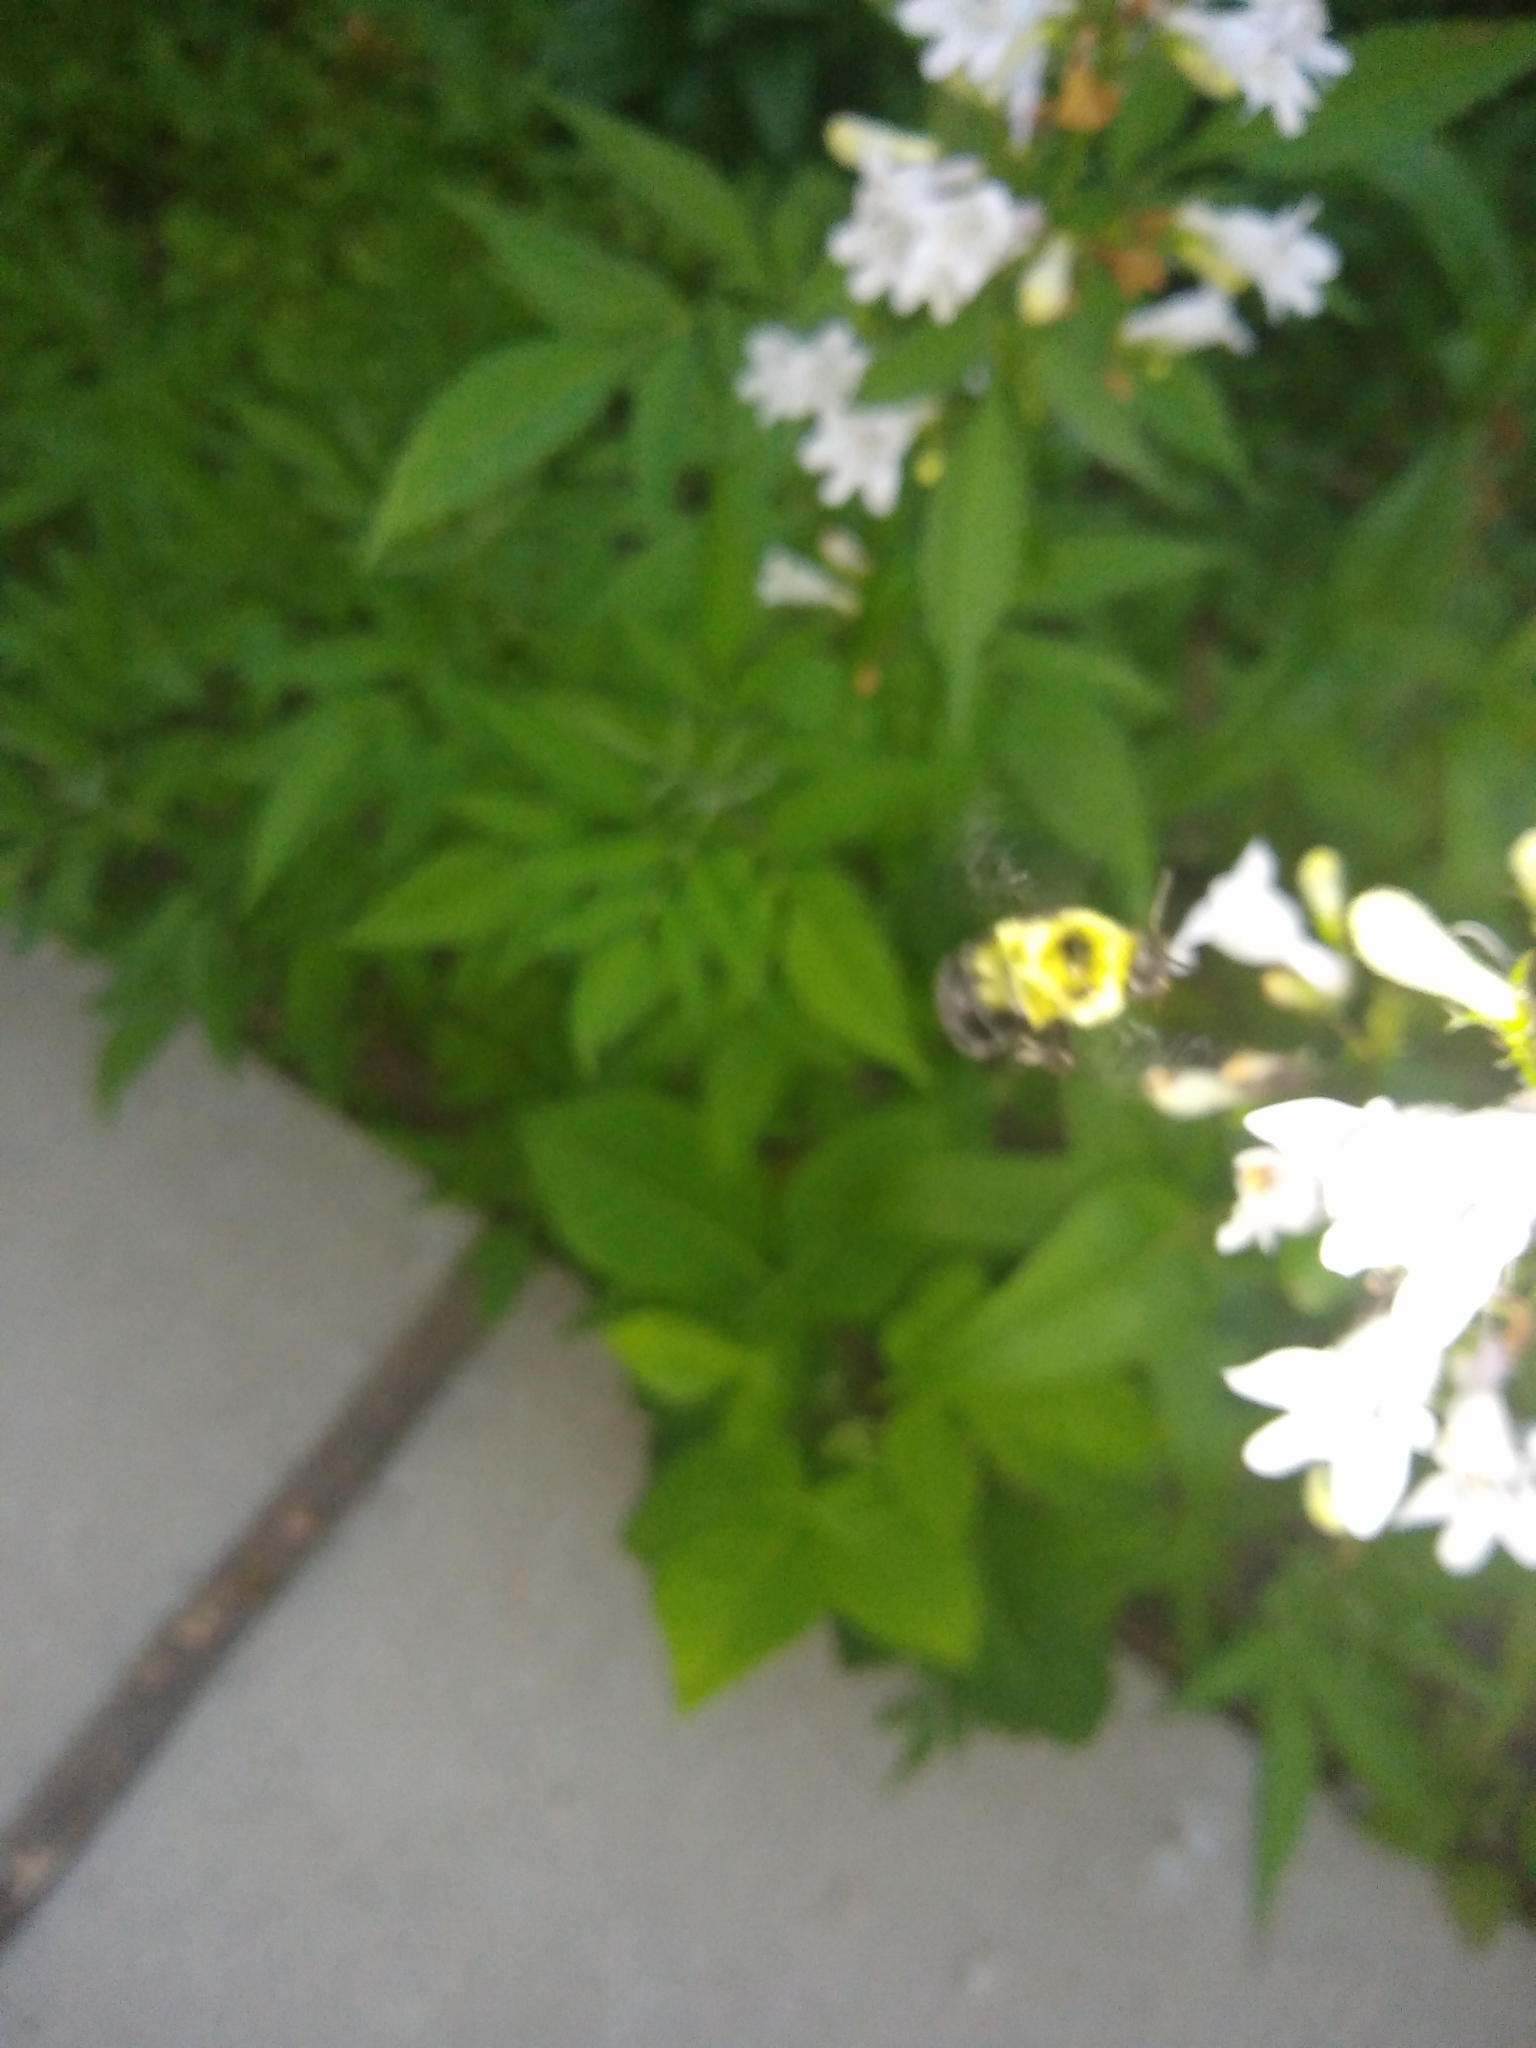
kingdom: Animalia
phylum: Arthropoda
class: Insecta
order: Hymenoptera
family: Apidae
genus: Bombus
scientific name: Bombus bimaculatus
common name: Two-spotted bumble bee
